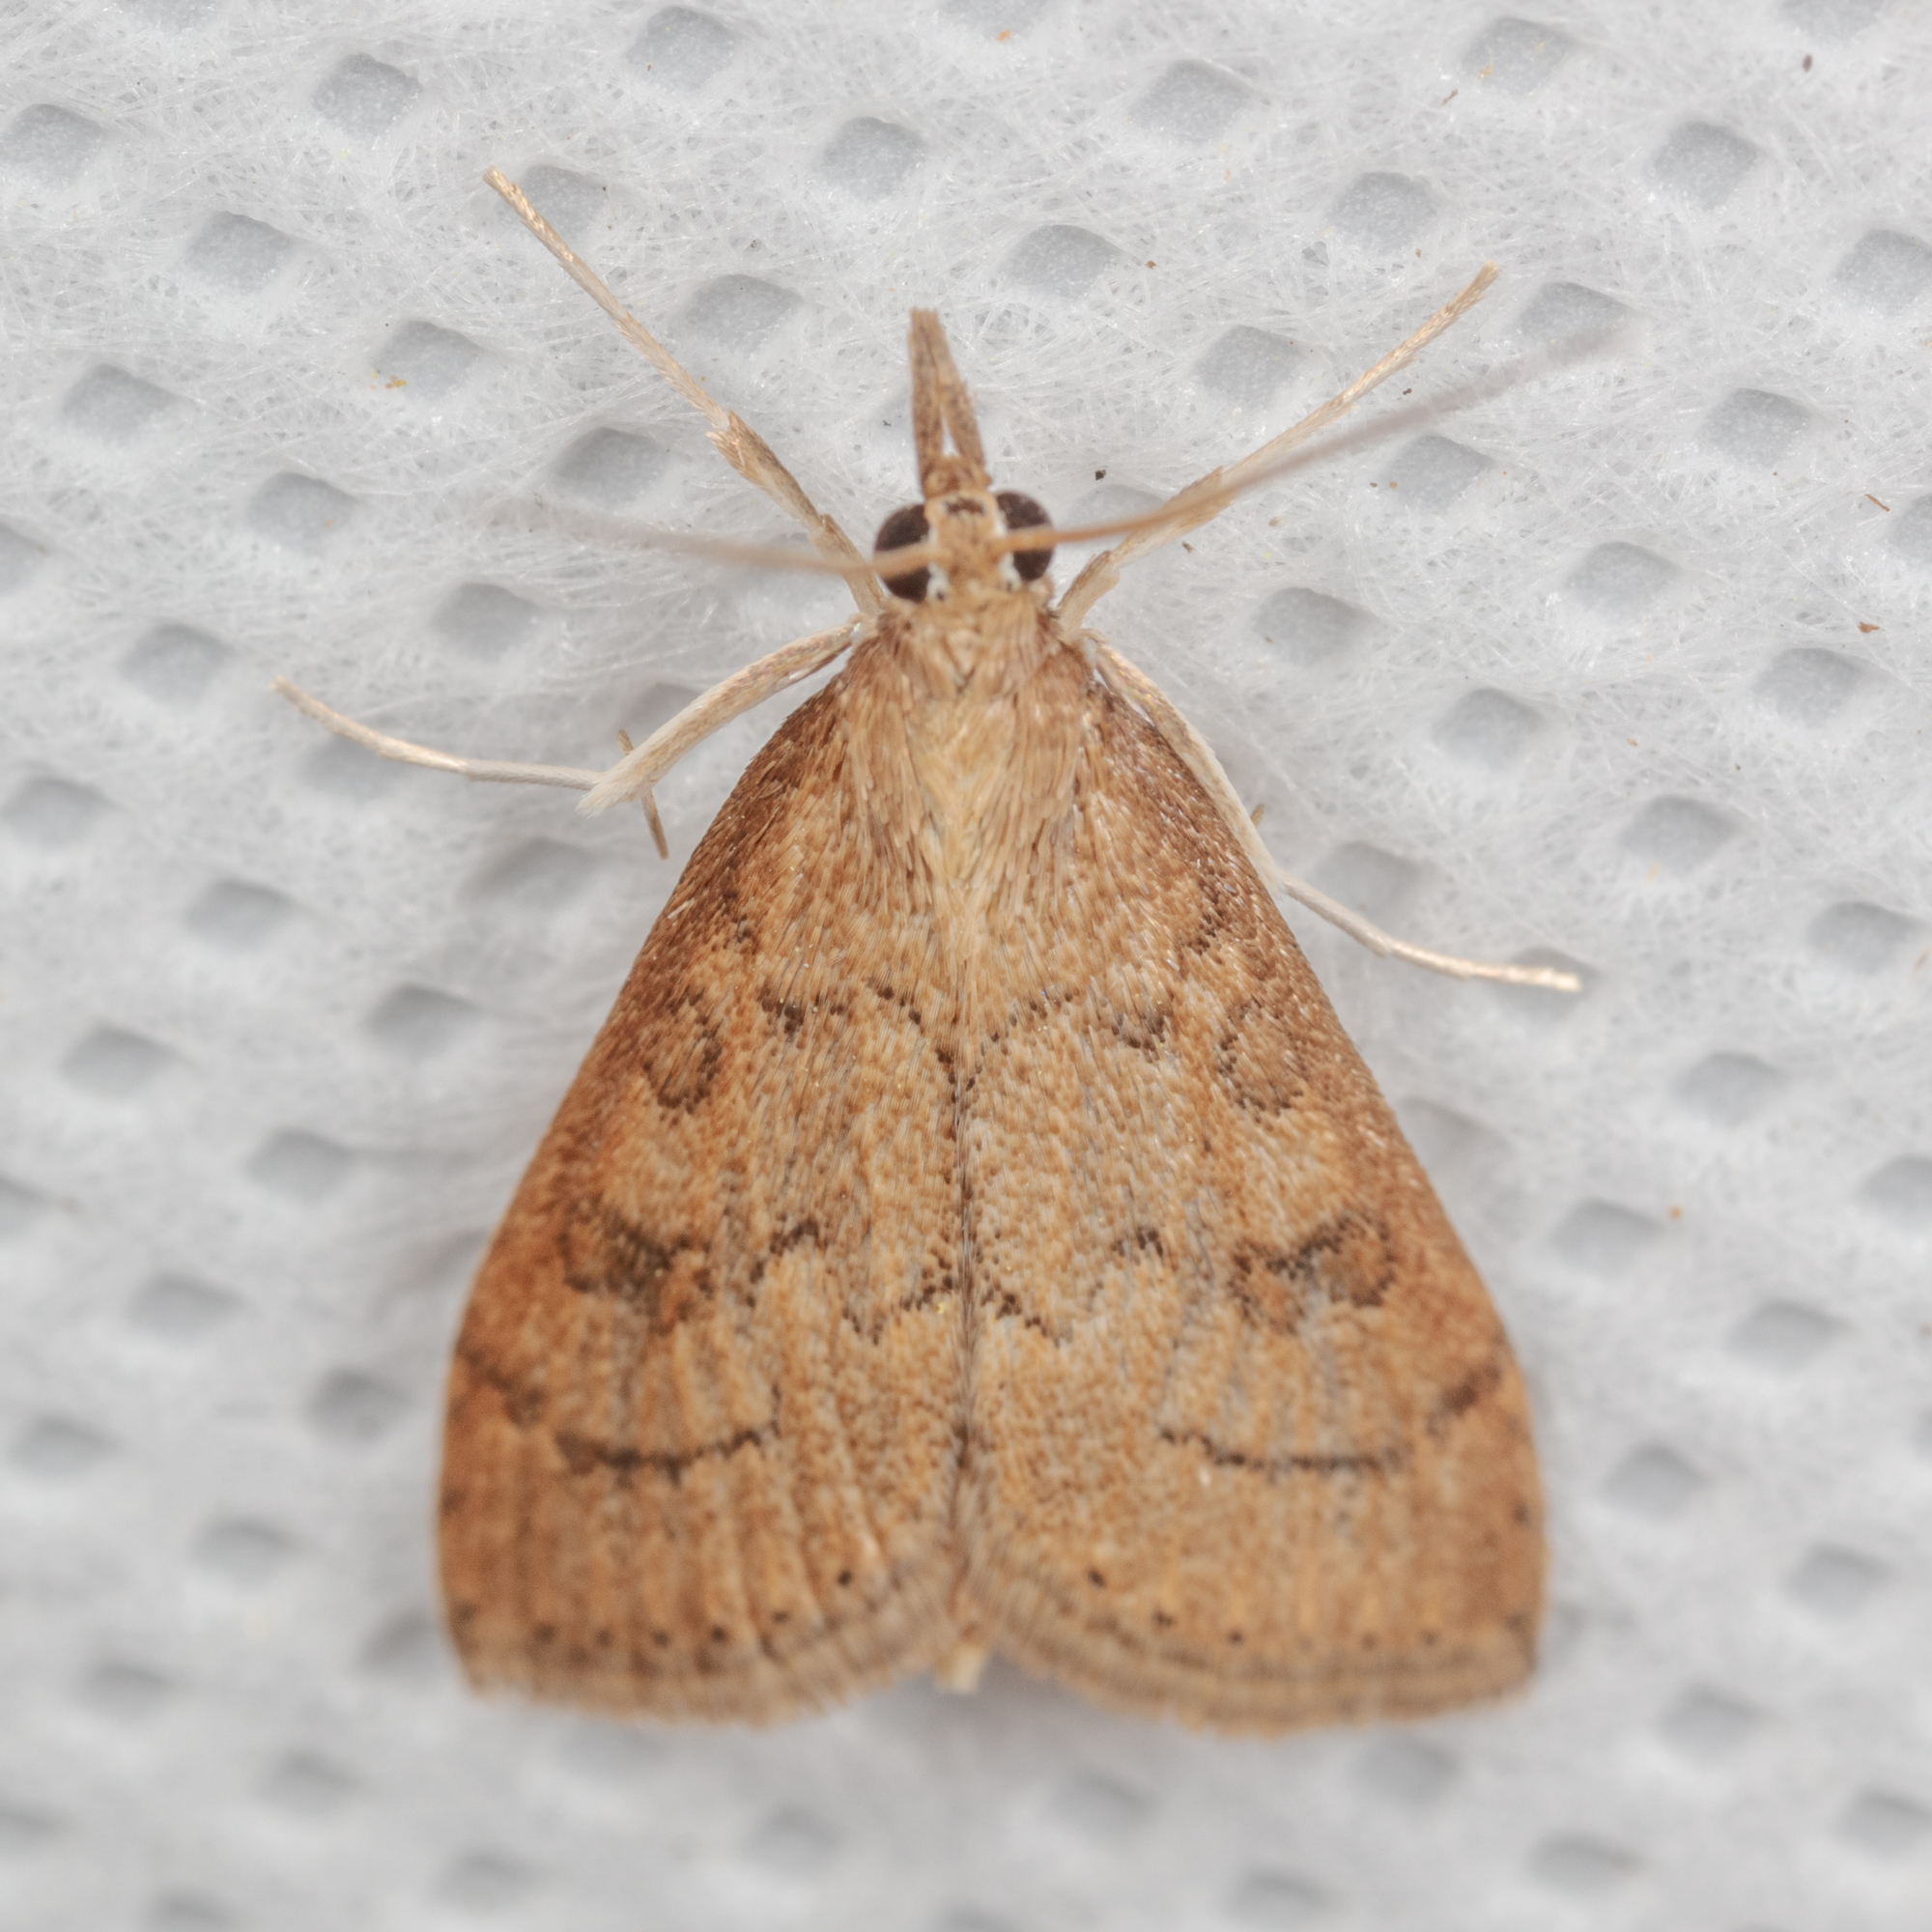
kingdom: Animalia
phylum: Arthropoda
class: Insecta
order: Lepidoptera
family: Crambidae
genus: Udea
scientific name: Udea rubigalis
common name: Celery leaftier moth
